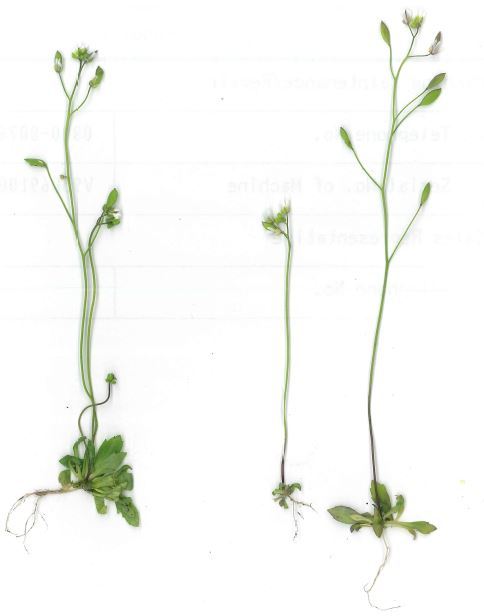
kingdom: Plantae
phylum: Tracheophyta
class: Magnoliopsida
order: Brassicales
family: Brassicaceae
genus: Draba
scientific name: Draba verna
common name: Spring draba
